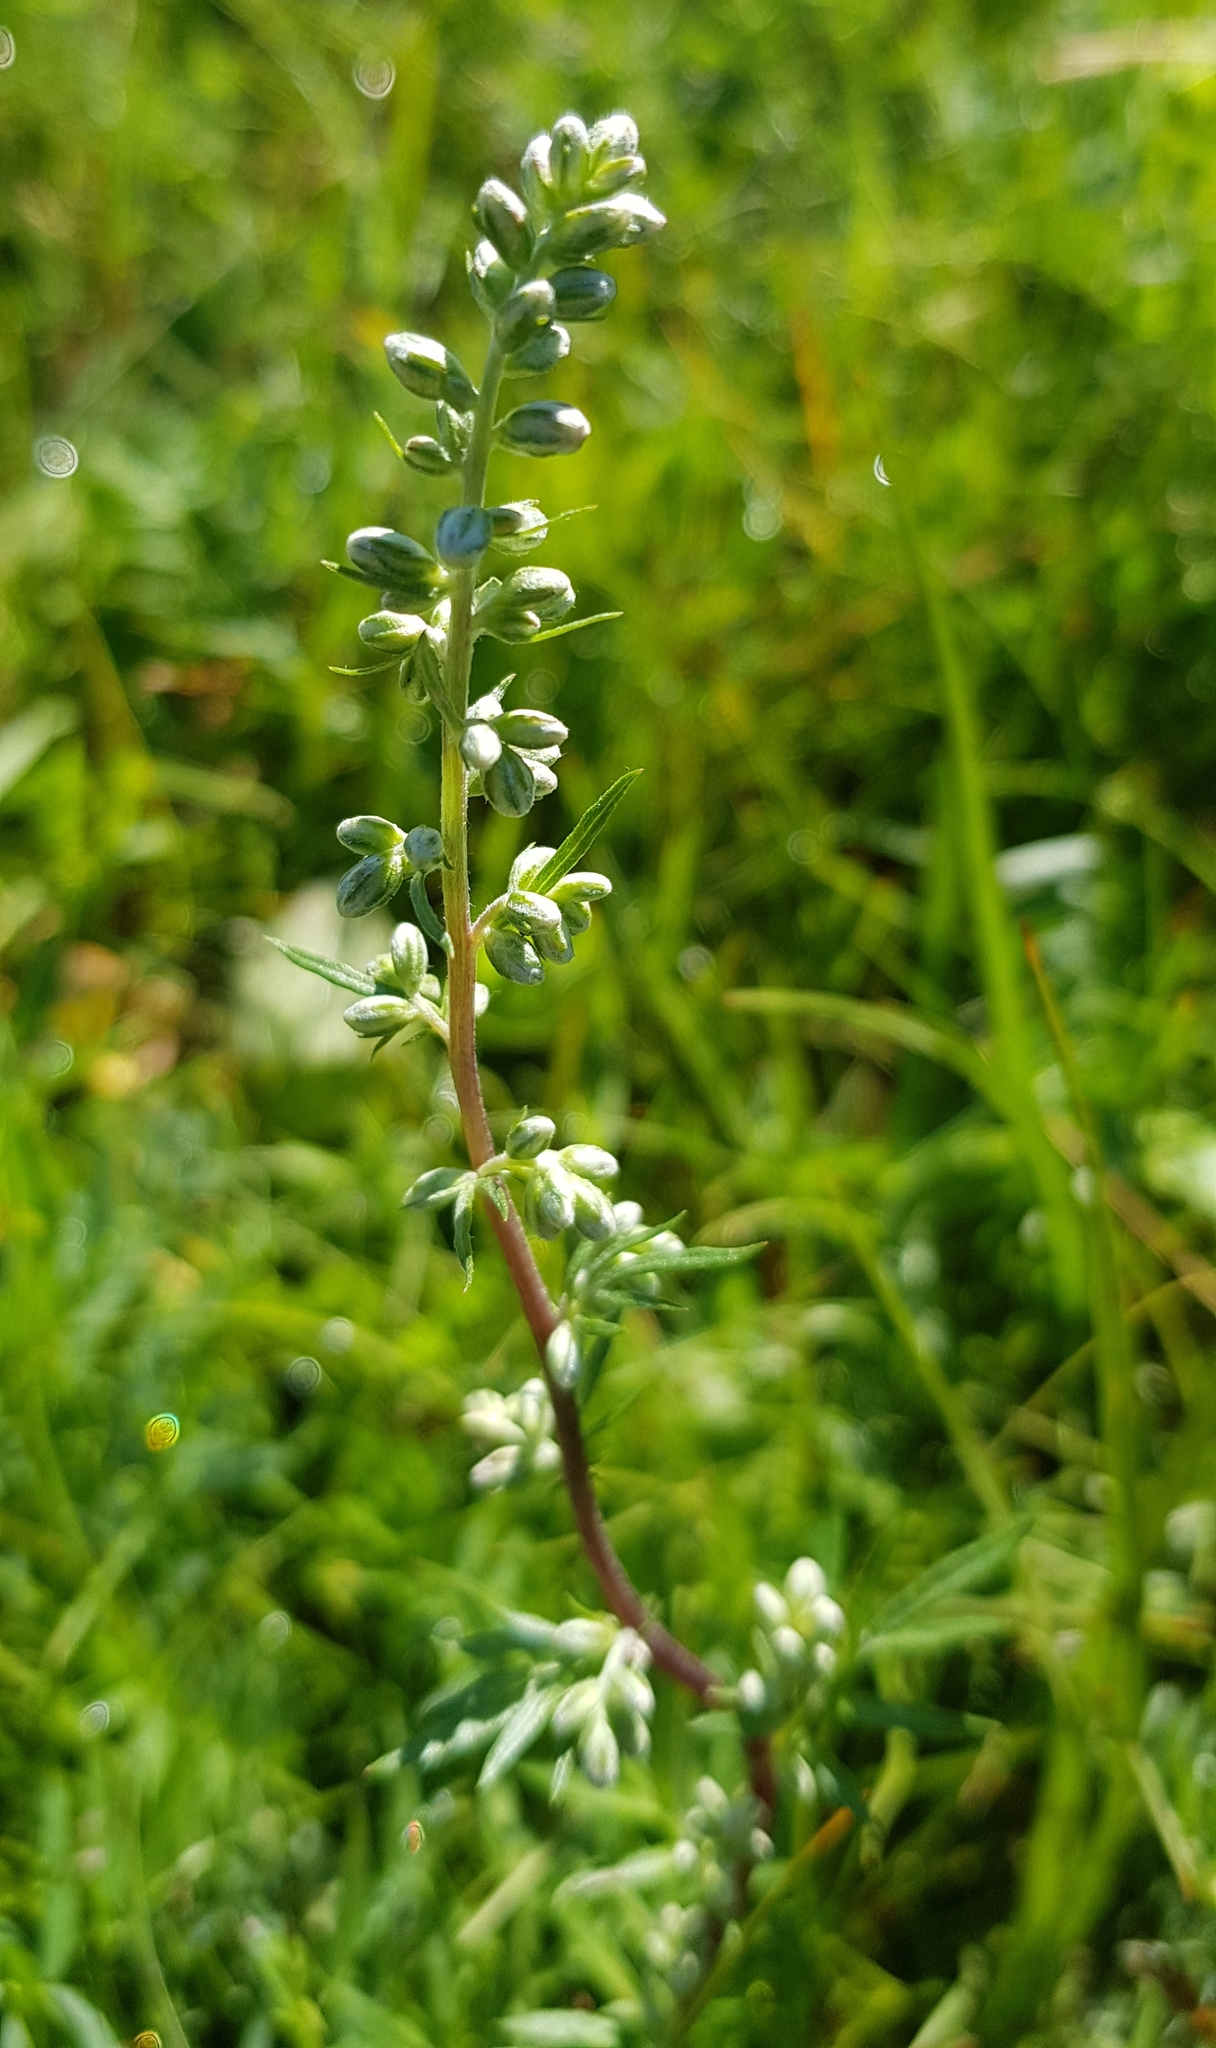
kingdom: Plantae
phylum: Tracheophyta
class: Magnoliopsida
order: Asterales
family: Asteraceae
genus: Artemisia
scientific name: Artemisia vulgaris
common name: Mugwort
